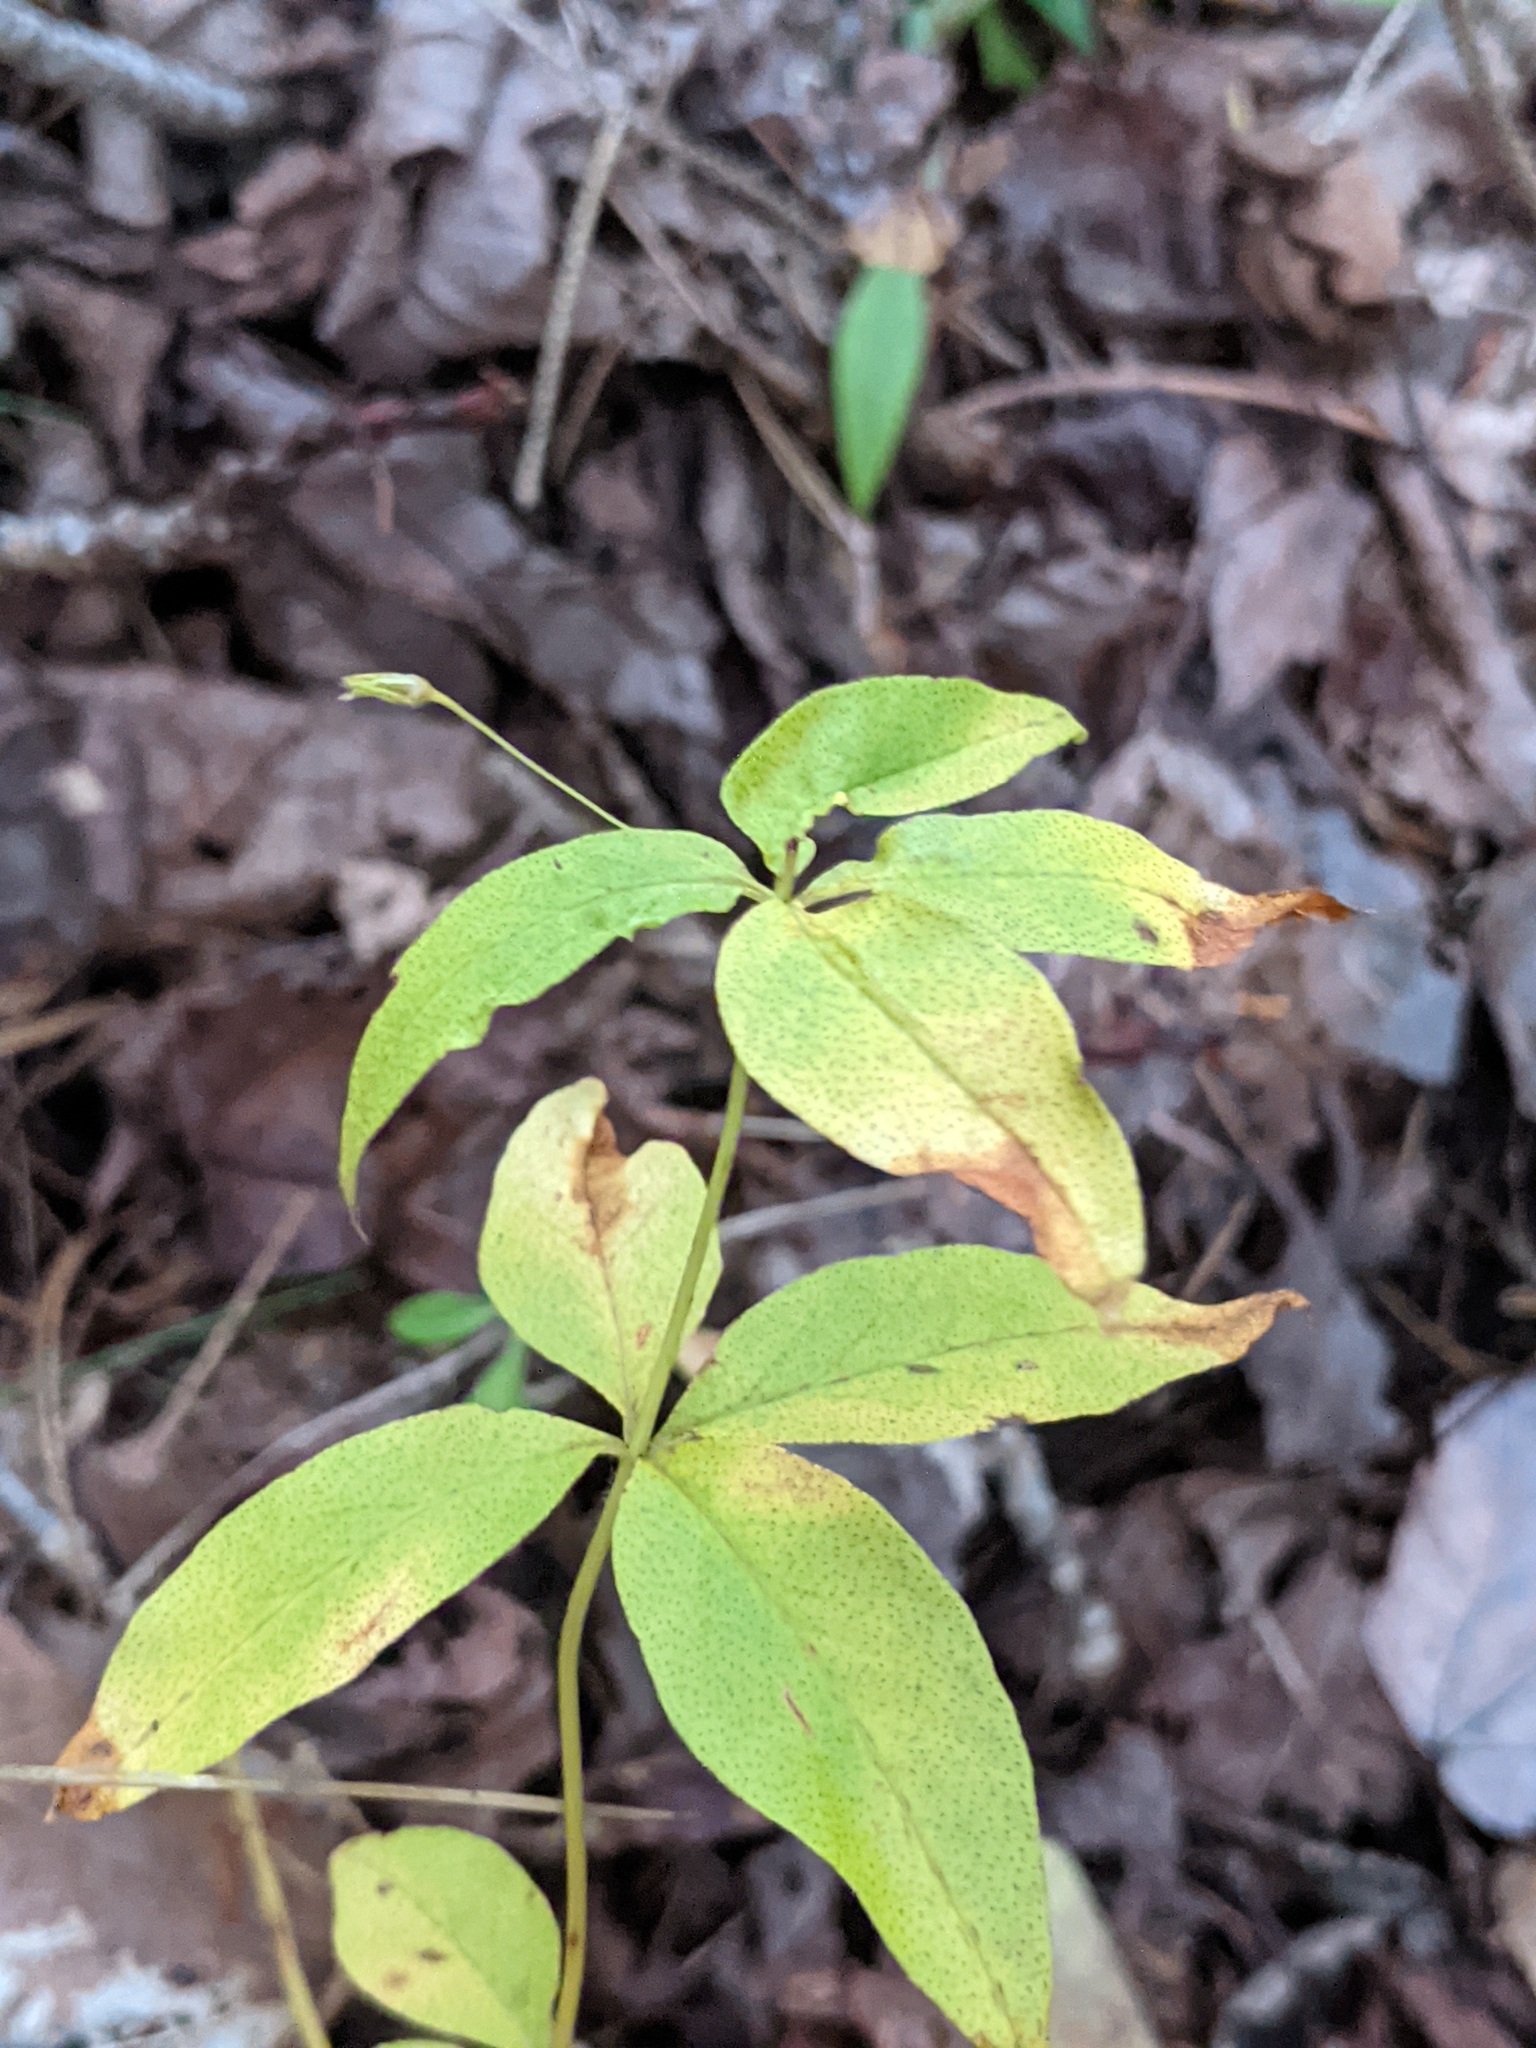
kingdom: Plantae
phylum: Tracheophyta
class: Magnoliopsida
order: Ericales
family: Primulaceae
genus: Lysimachia
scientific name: Lysimachia quadrifolia
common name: Whorled loosestrife
